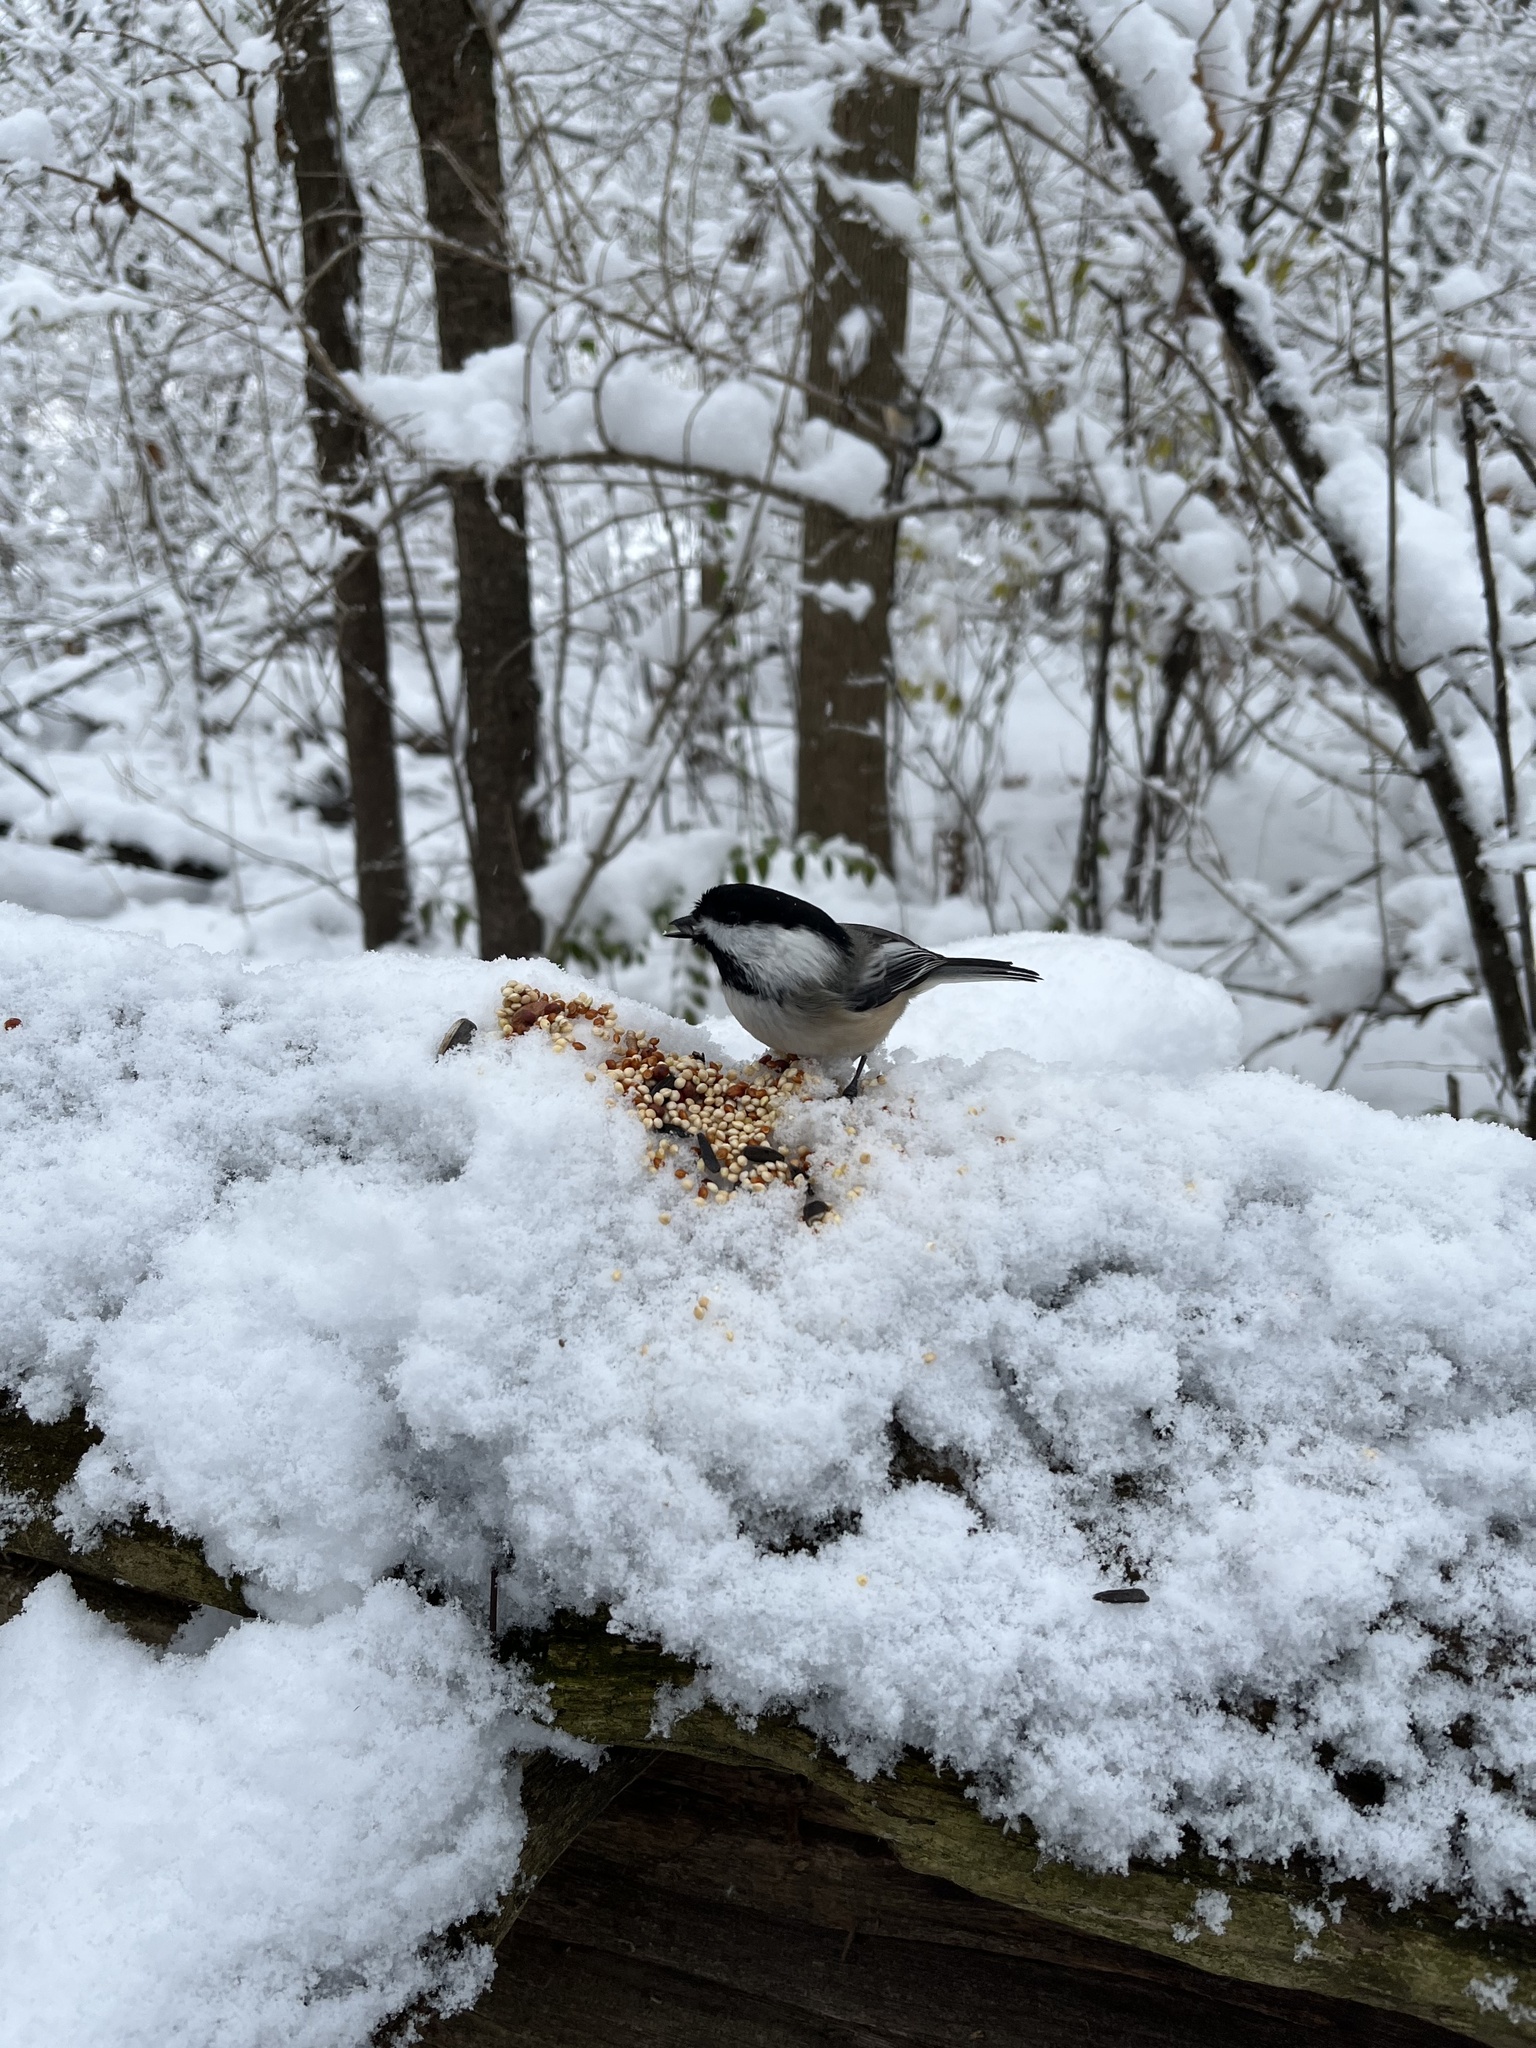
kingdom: Animalia
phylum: Chordata
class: Aves
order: Passeriformes
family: Paridae
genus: Poecile
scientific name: Poecile atricapillus
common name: Black-capped chickadee
